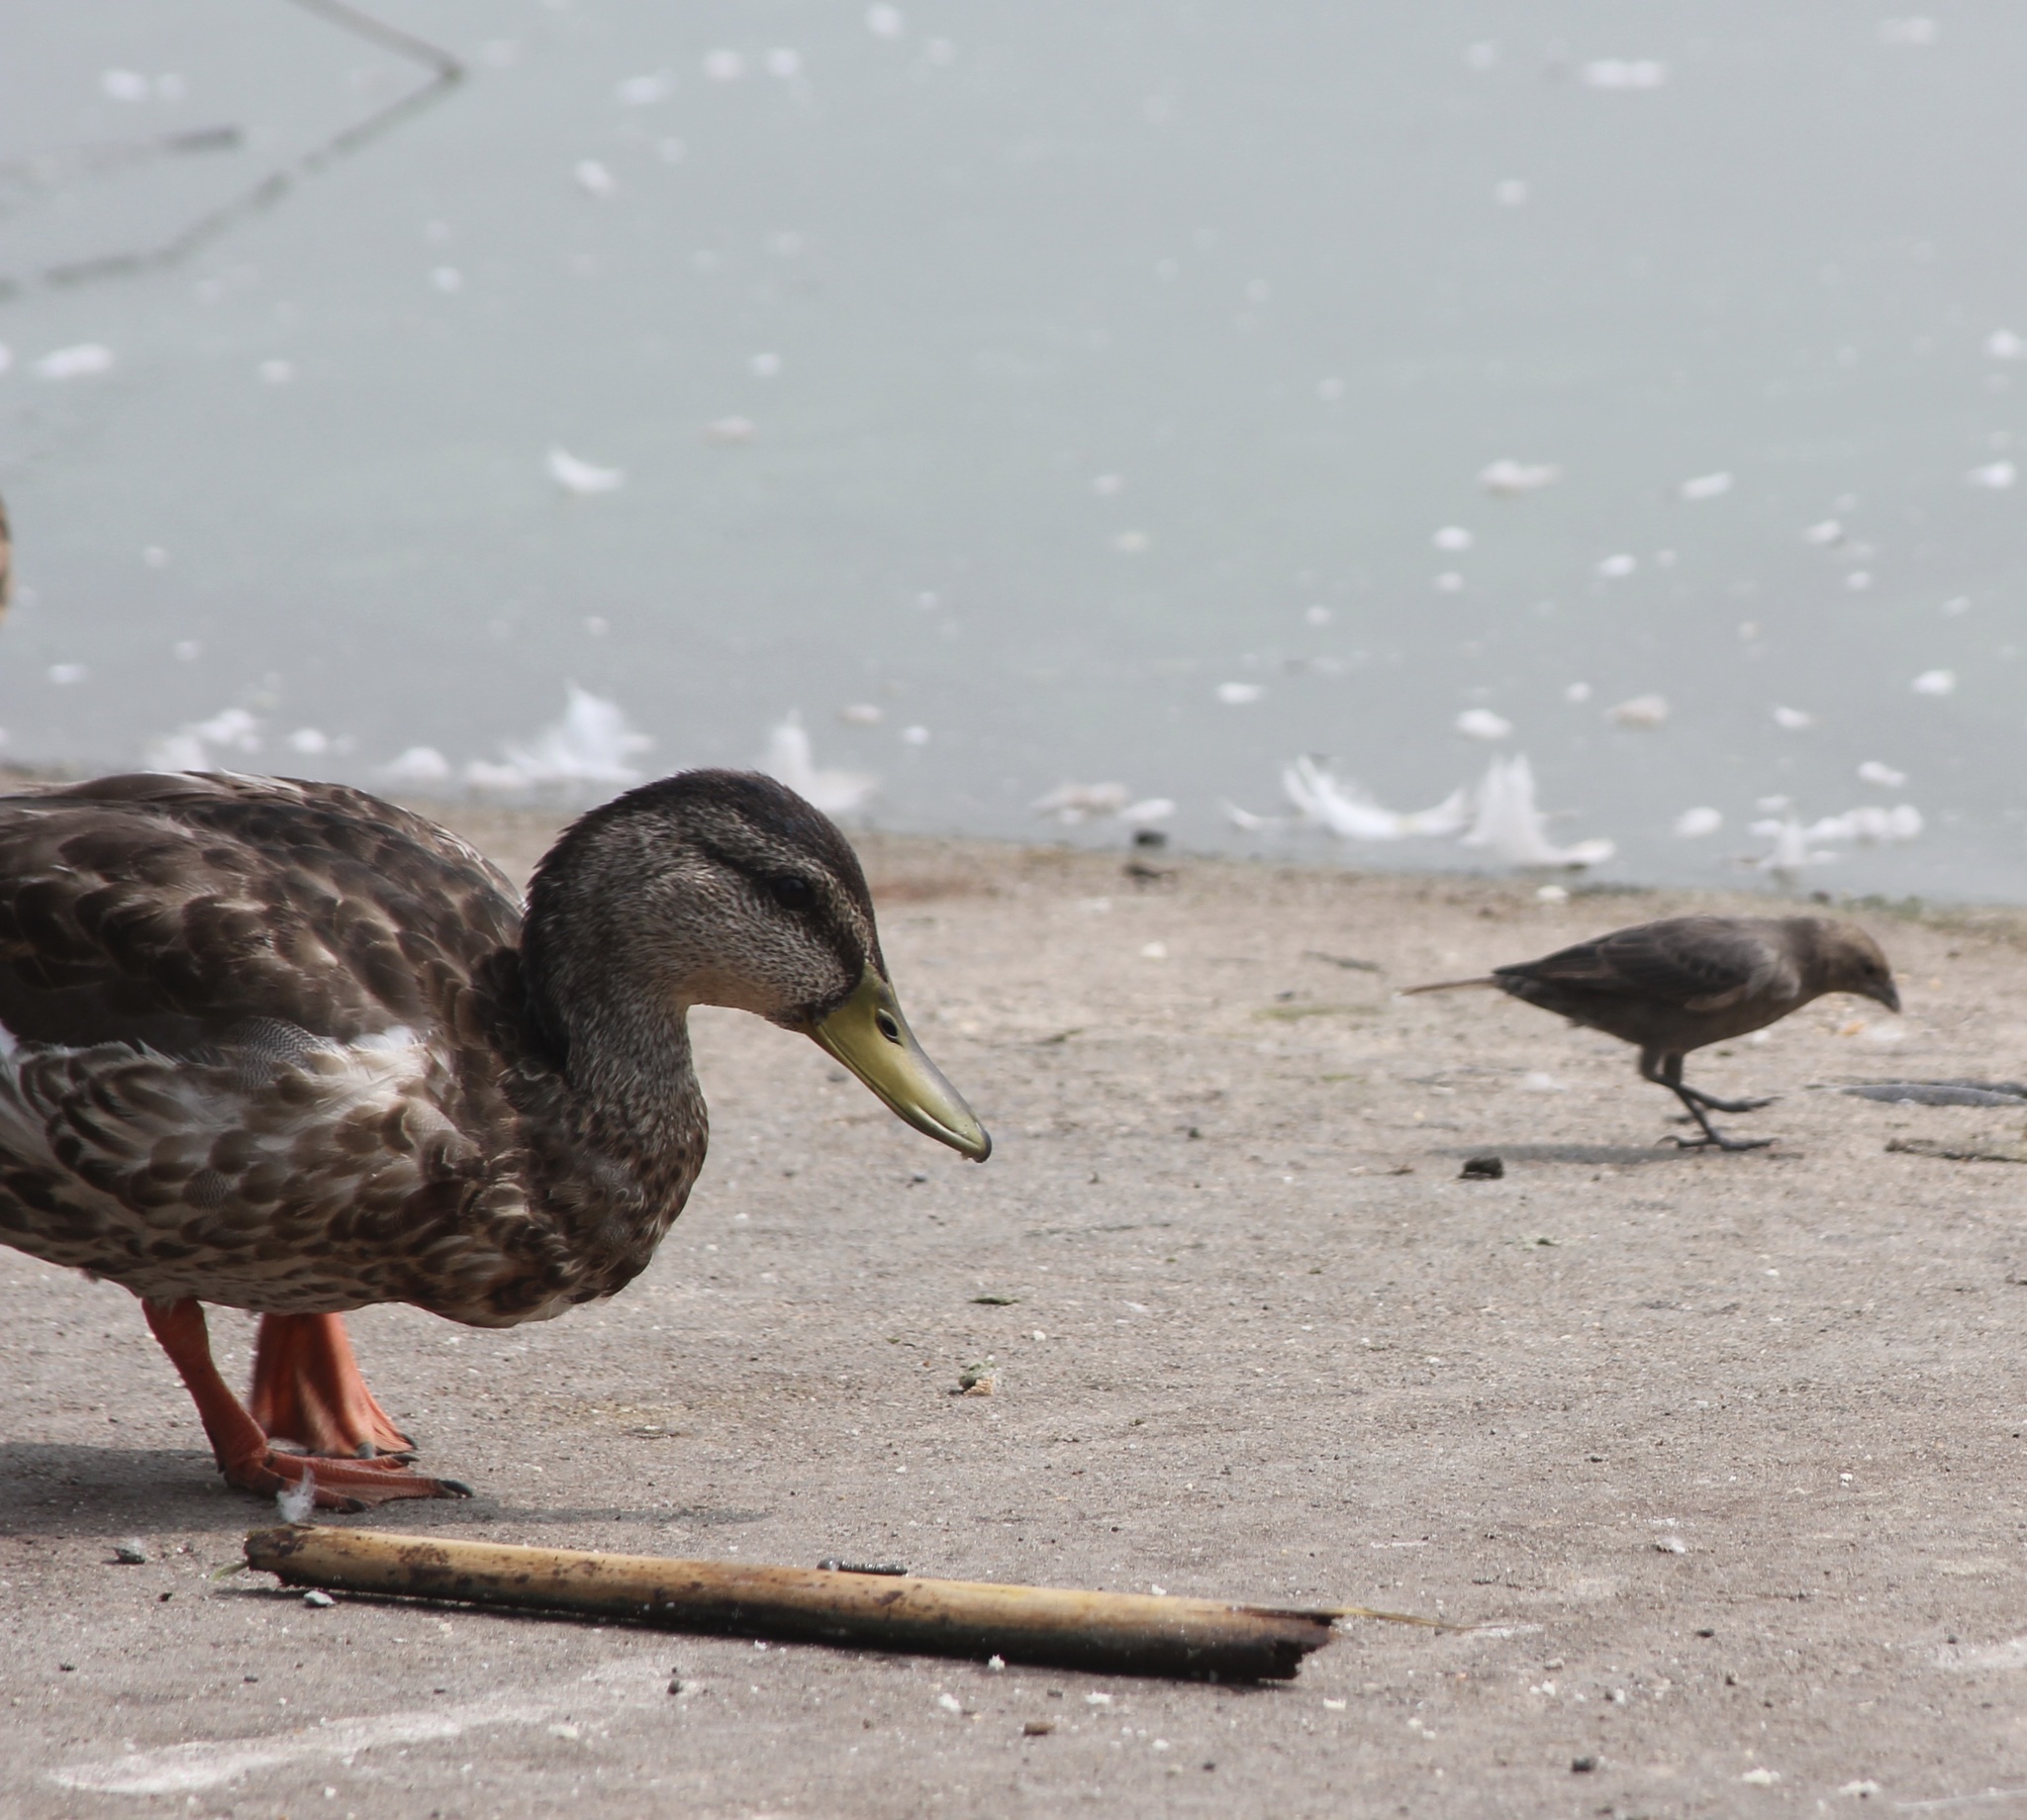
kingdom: Animalia
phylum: Chordata
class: Aves
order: Anseriformes
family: Anatidae
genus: Anas
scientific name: Anas platyrhynchos
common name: Mallard
